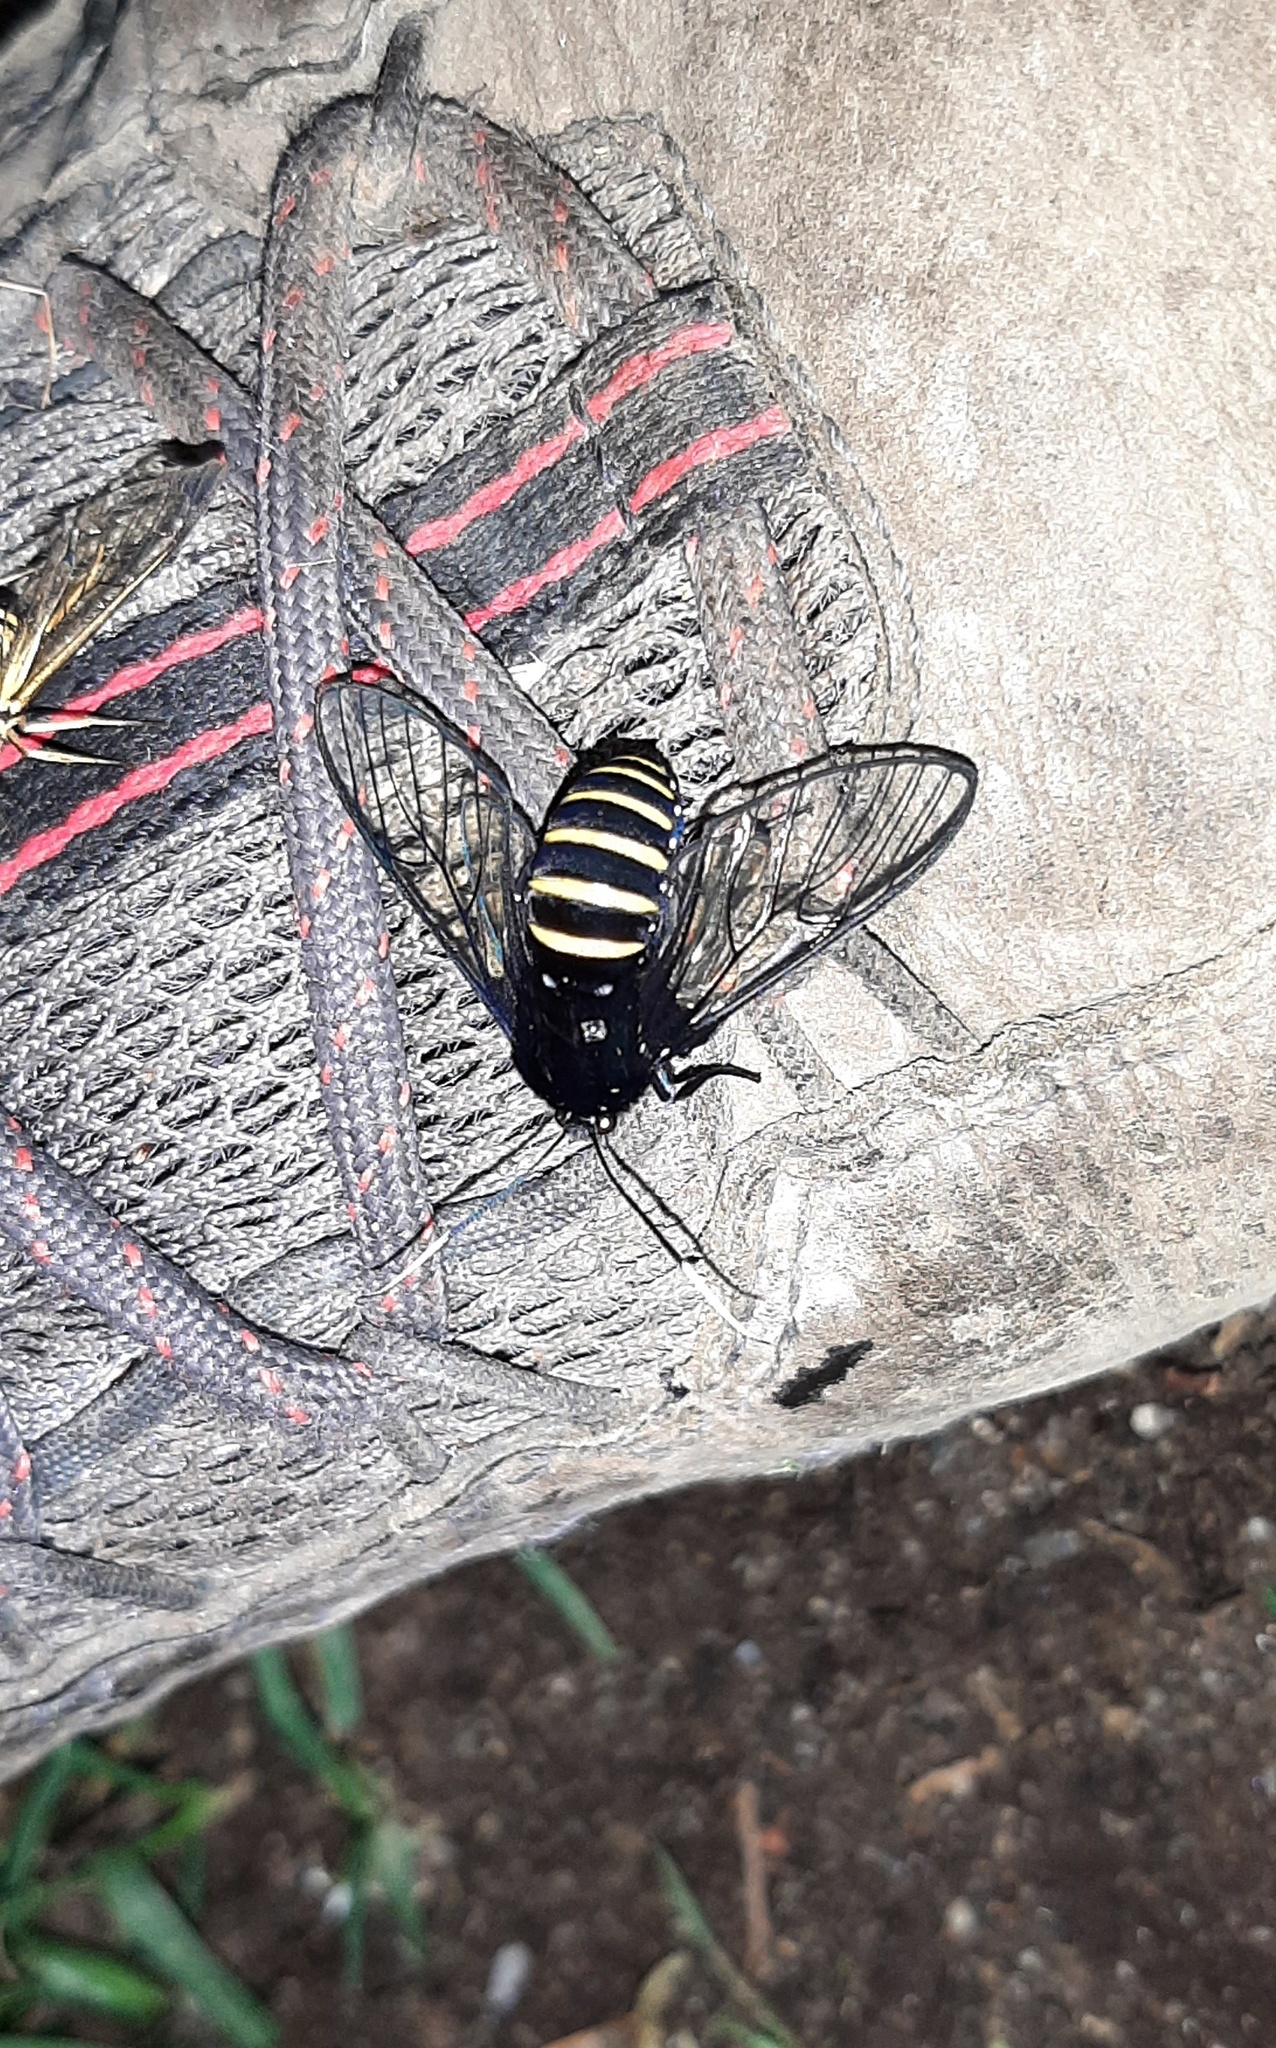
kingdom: Animalia
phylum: Arthropoda
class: Insecta
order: Lepidoptera
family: Erebidae
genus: Homoeocera
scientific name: Homoeocera crassa
